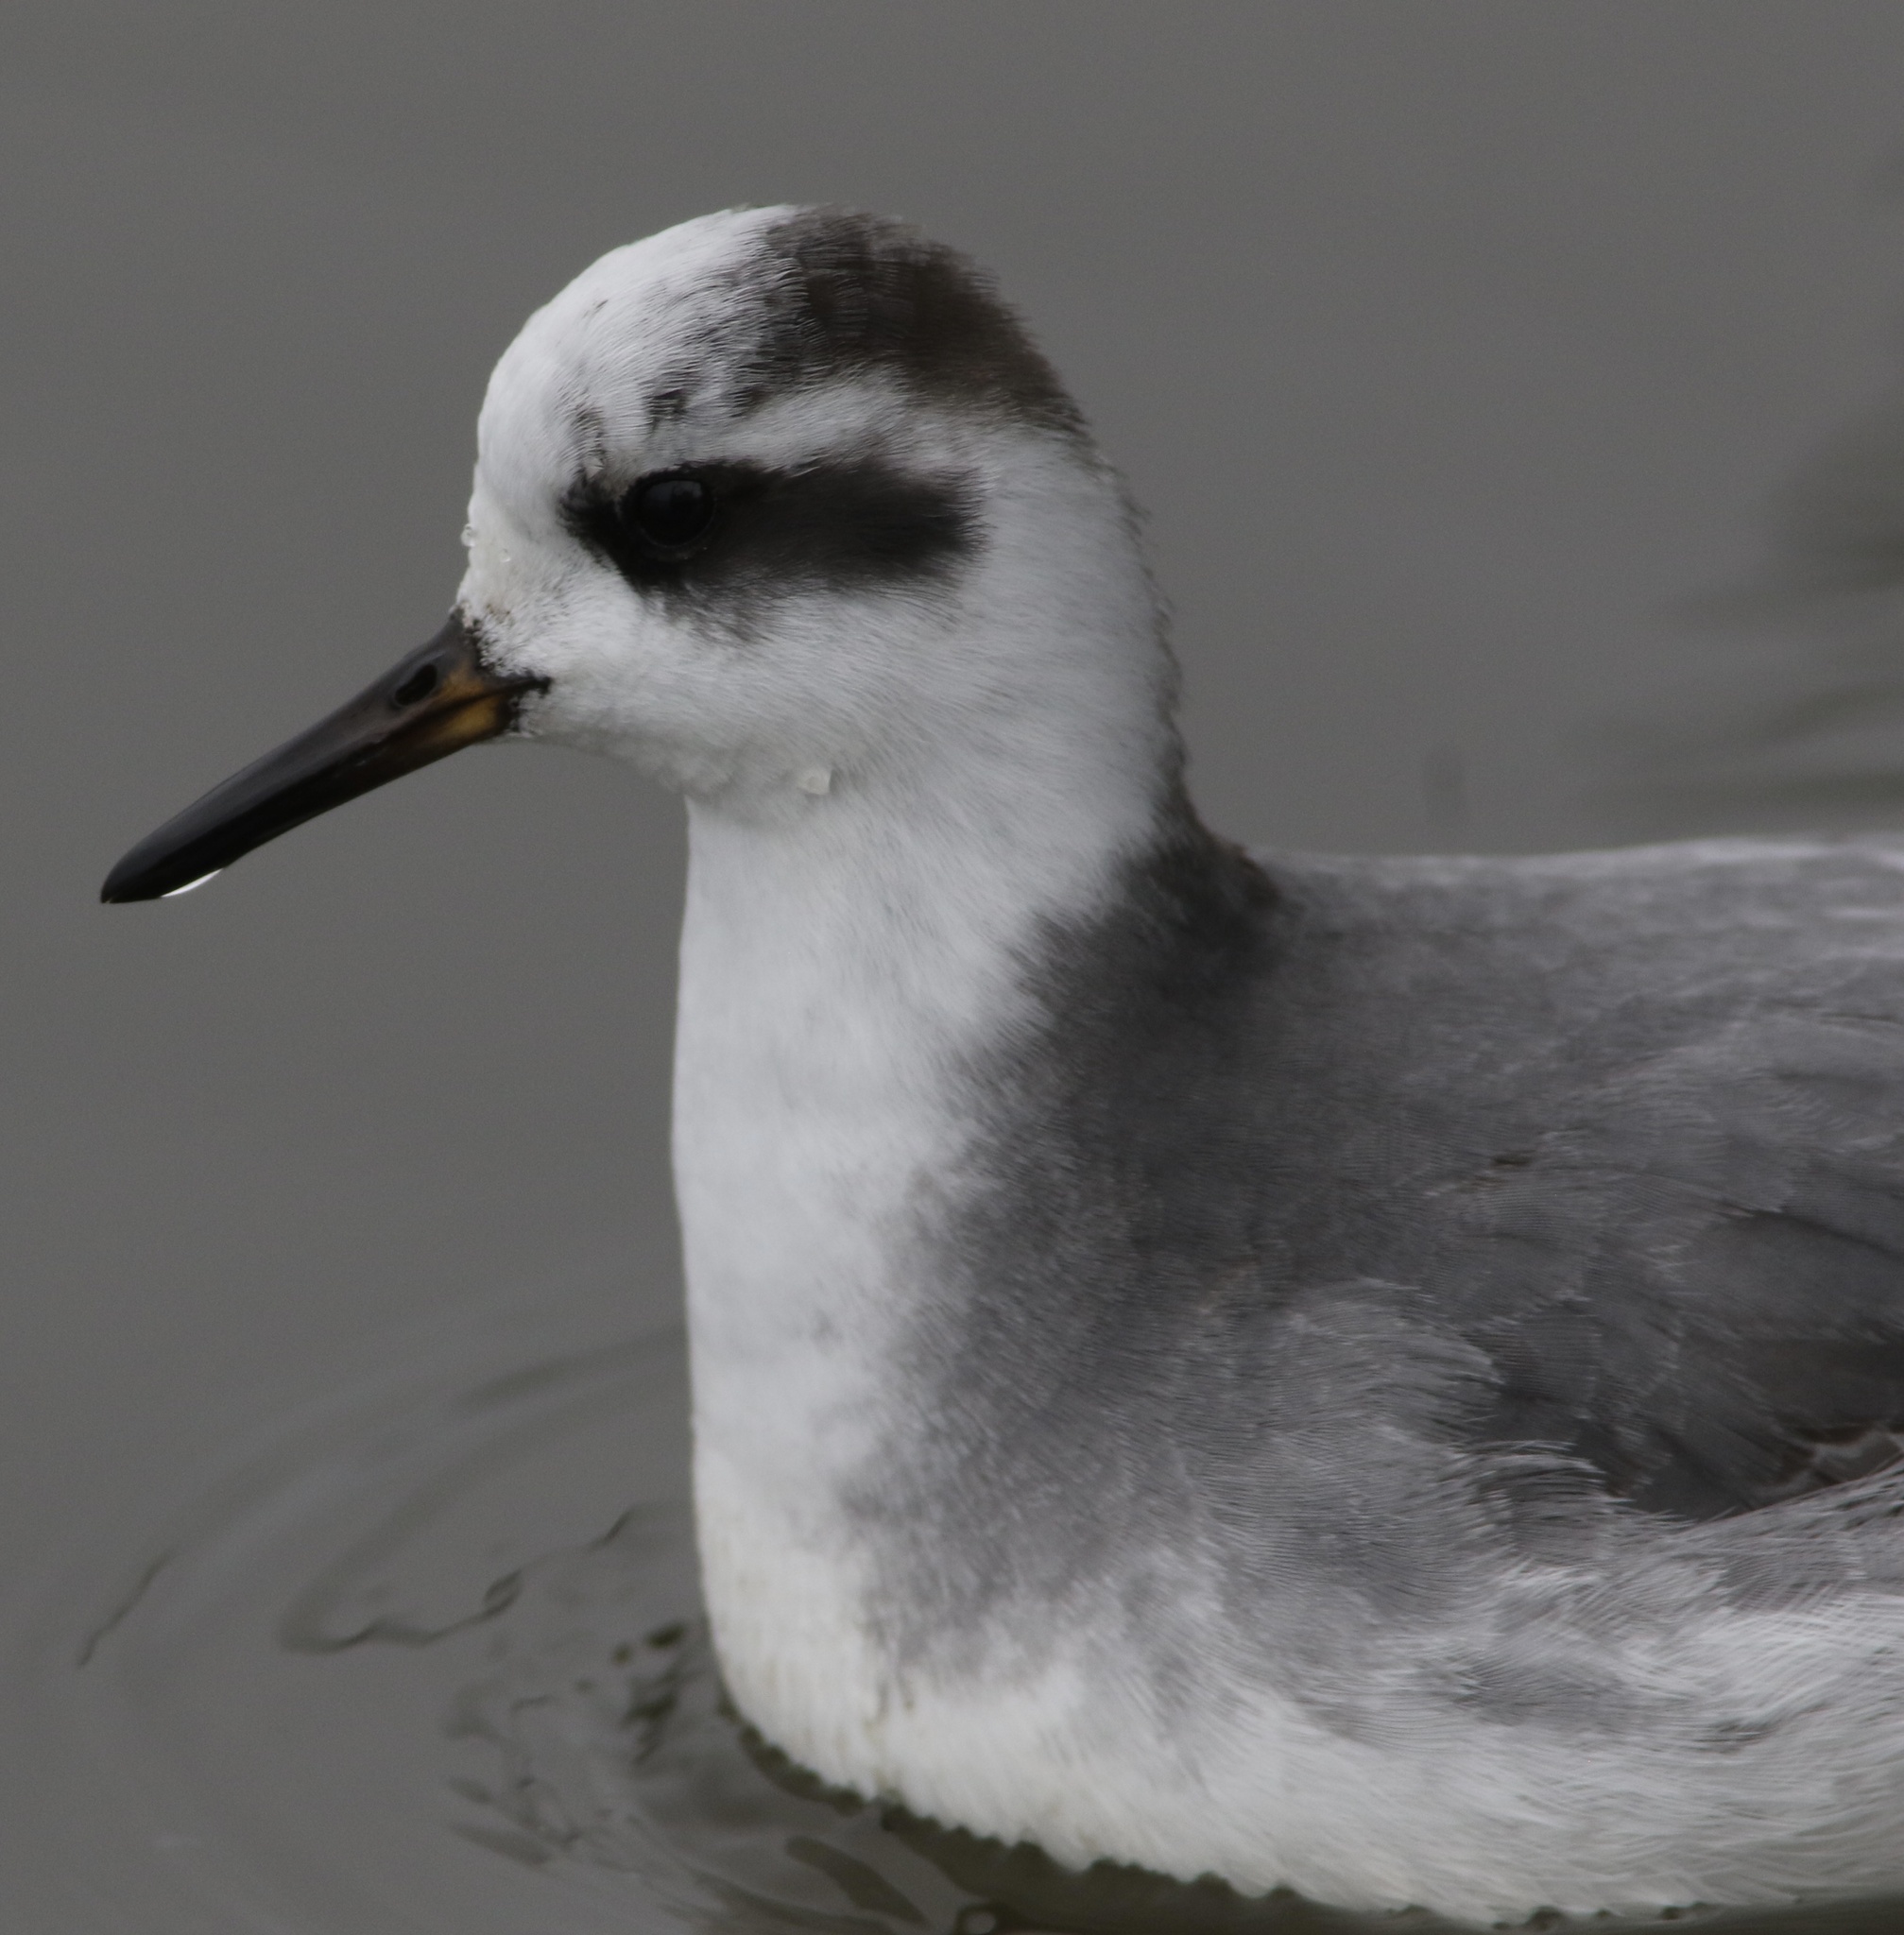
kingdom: Animalia
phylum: Chordata
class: Aves
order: Charadriiformes
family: Scolopacidae
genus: Phalaropus
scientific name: Phalaropus fulicarius
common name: Red phalarope
